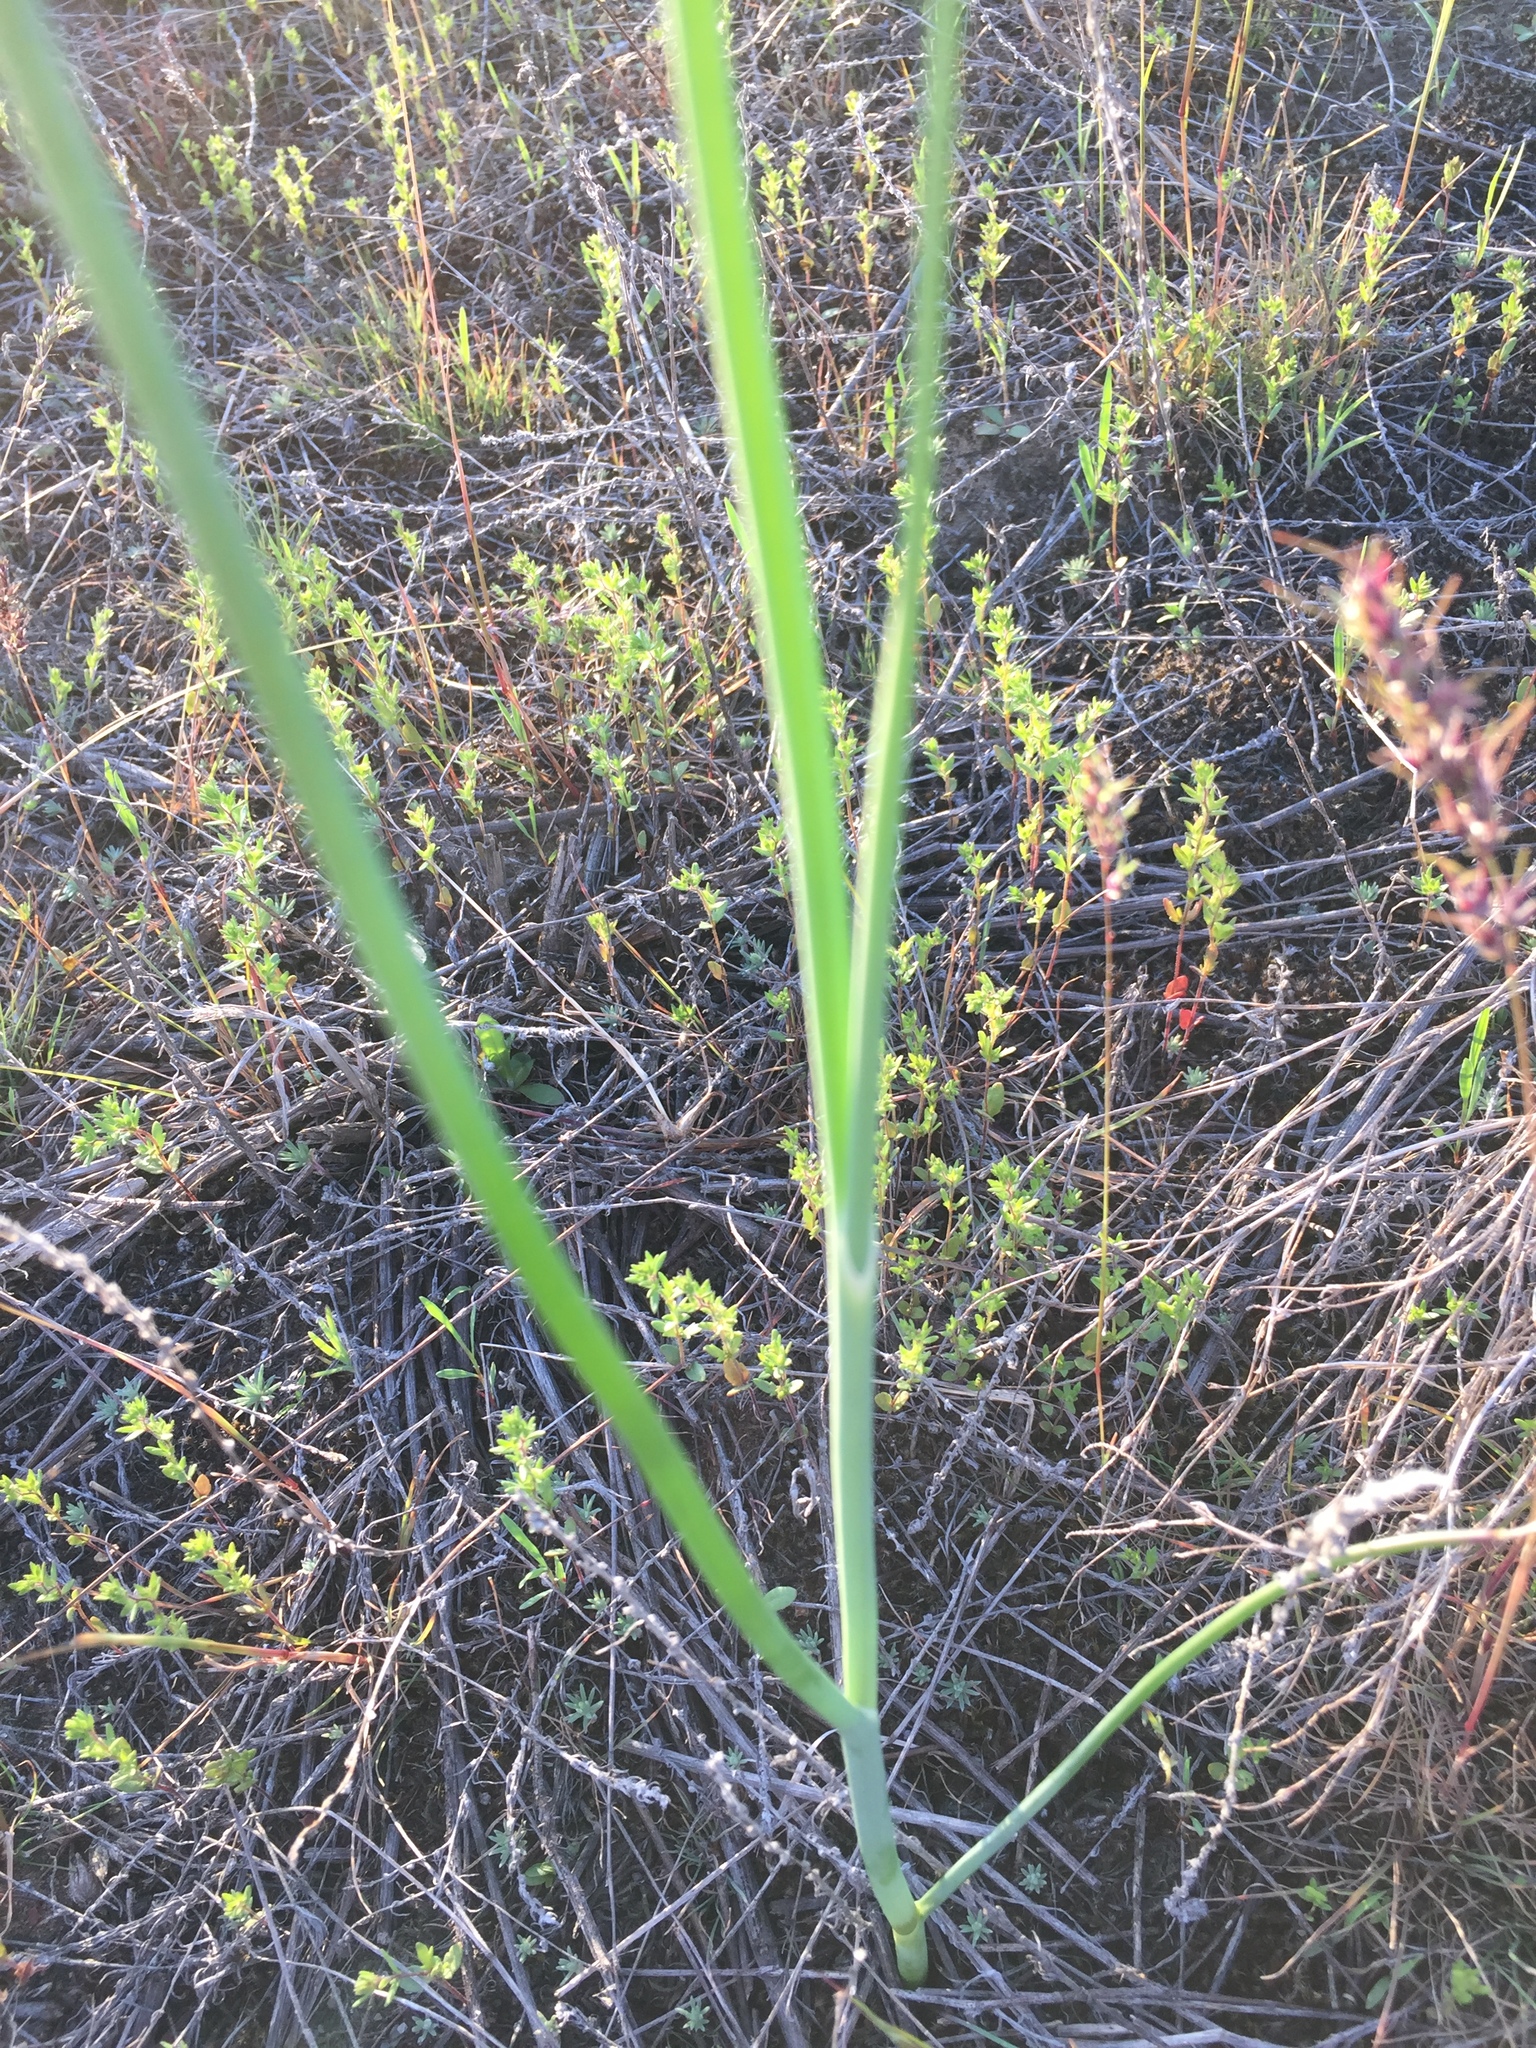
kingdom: Plantae
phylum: Tracheophyta
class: Liliopsida
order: Asparagales
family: Amaryllidaceae
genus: Allium
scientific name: Allium oleraceum
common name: Field garlic
